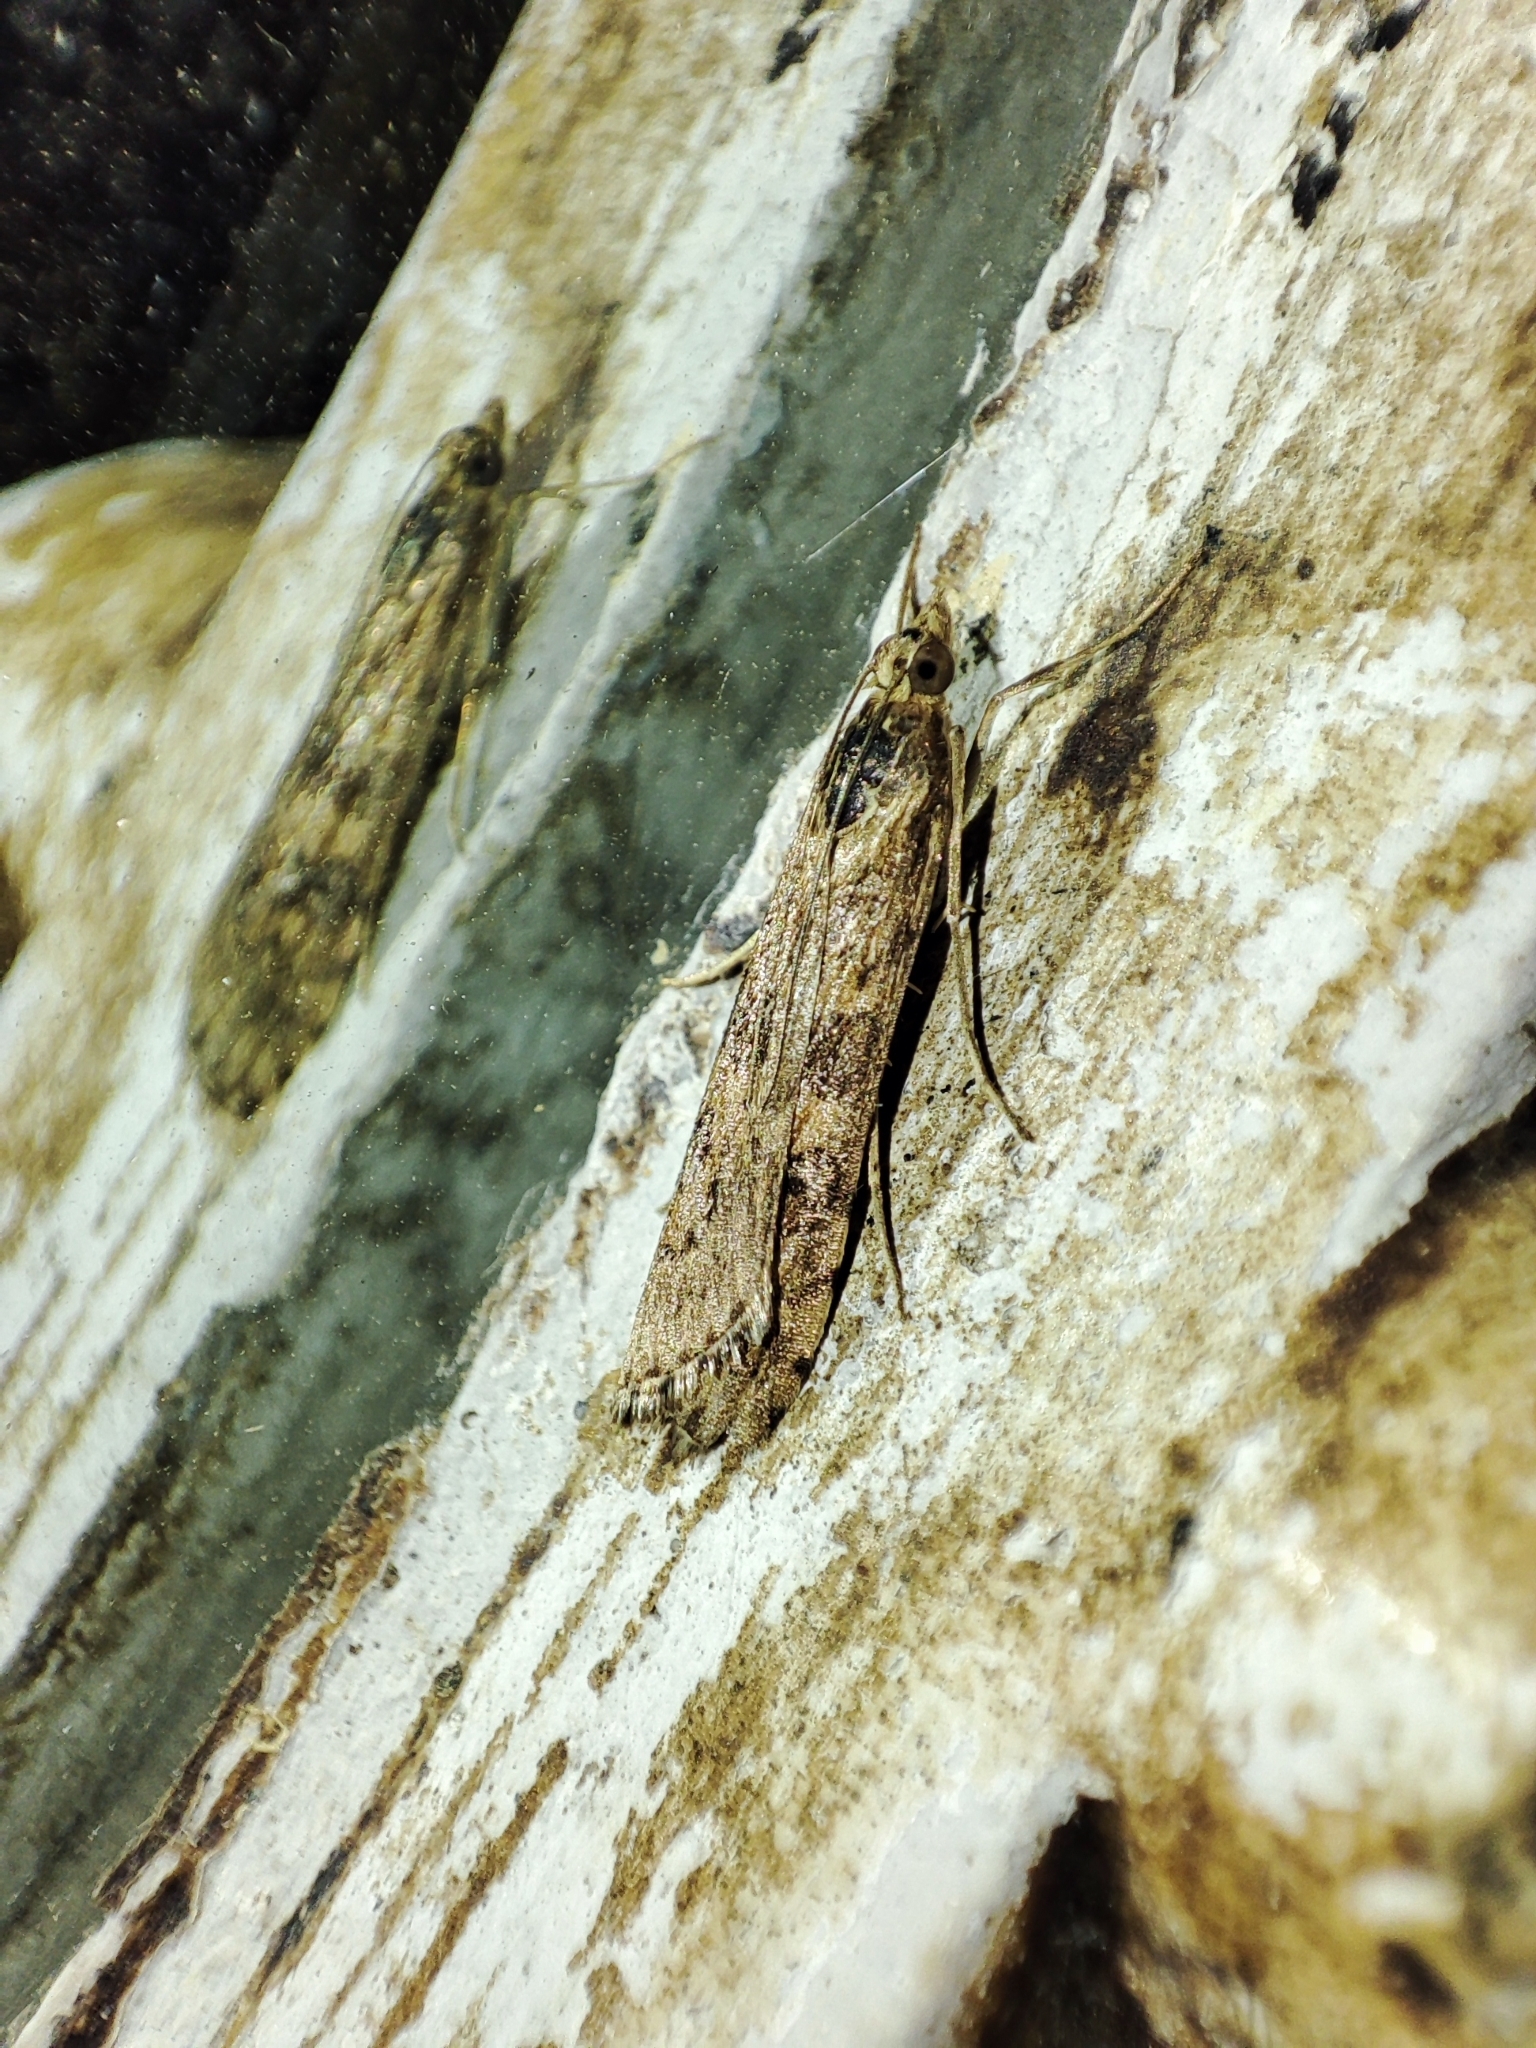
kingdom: Animalia
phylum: Arthropoda
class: Insecta
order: Lepidoptera
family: Crambidae
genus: Nomophila
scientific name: Nomophila noctuella
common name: Rush veneer
